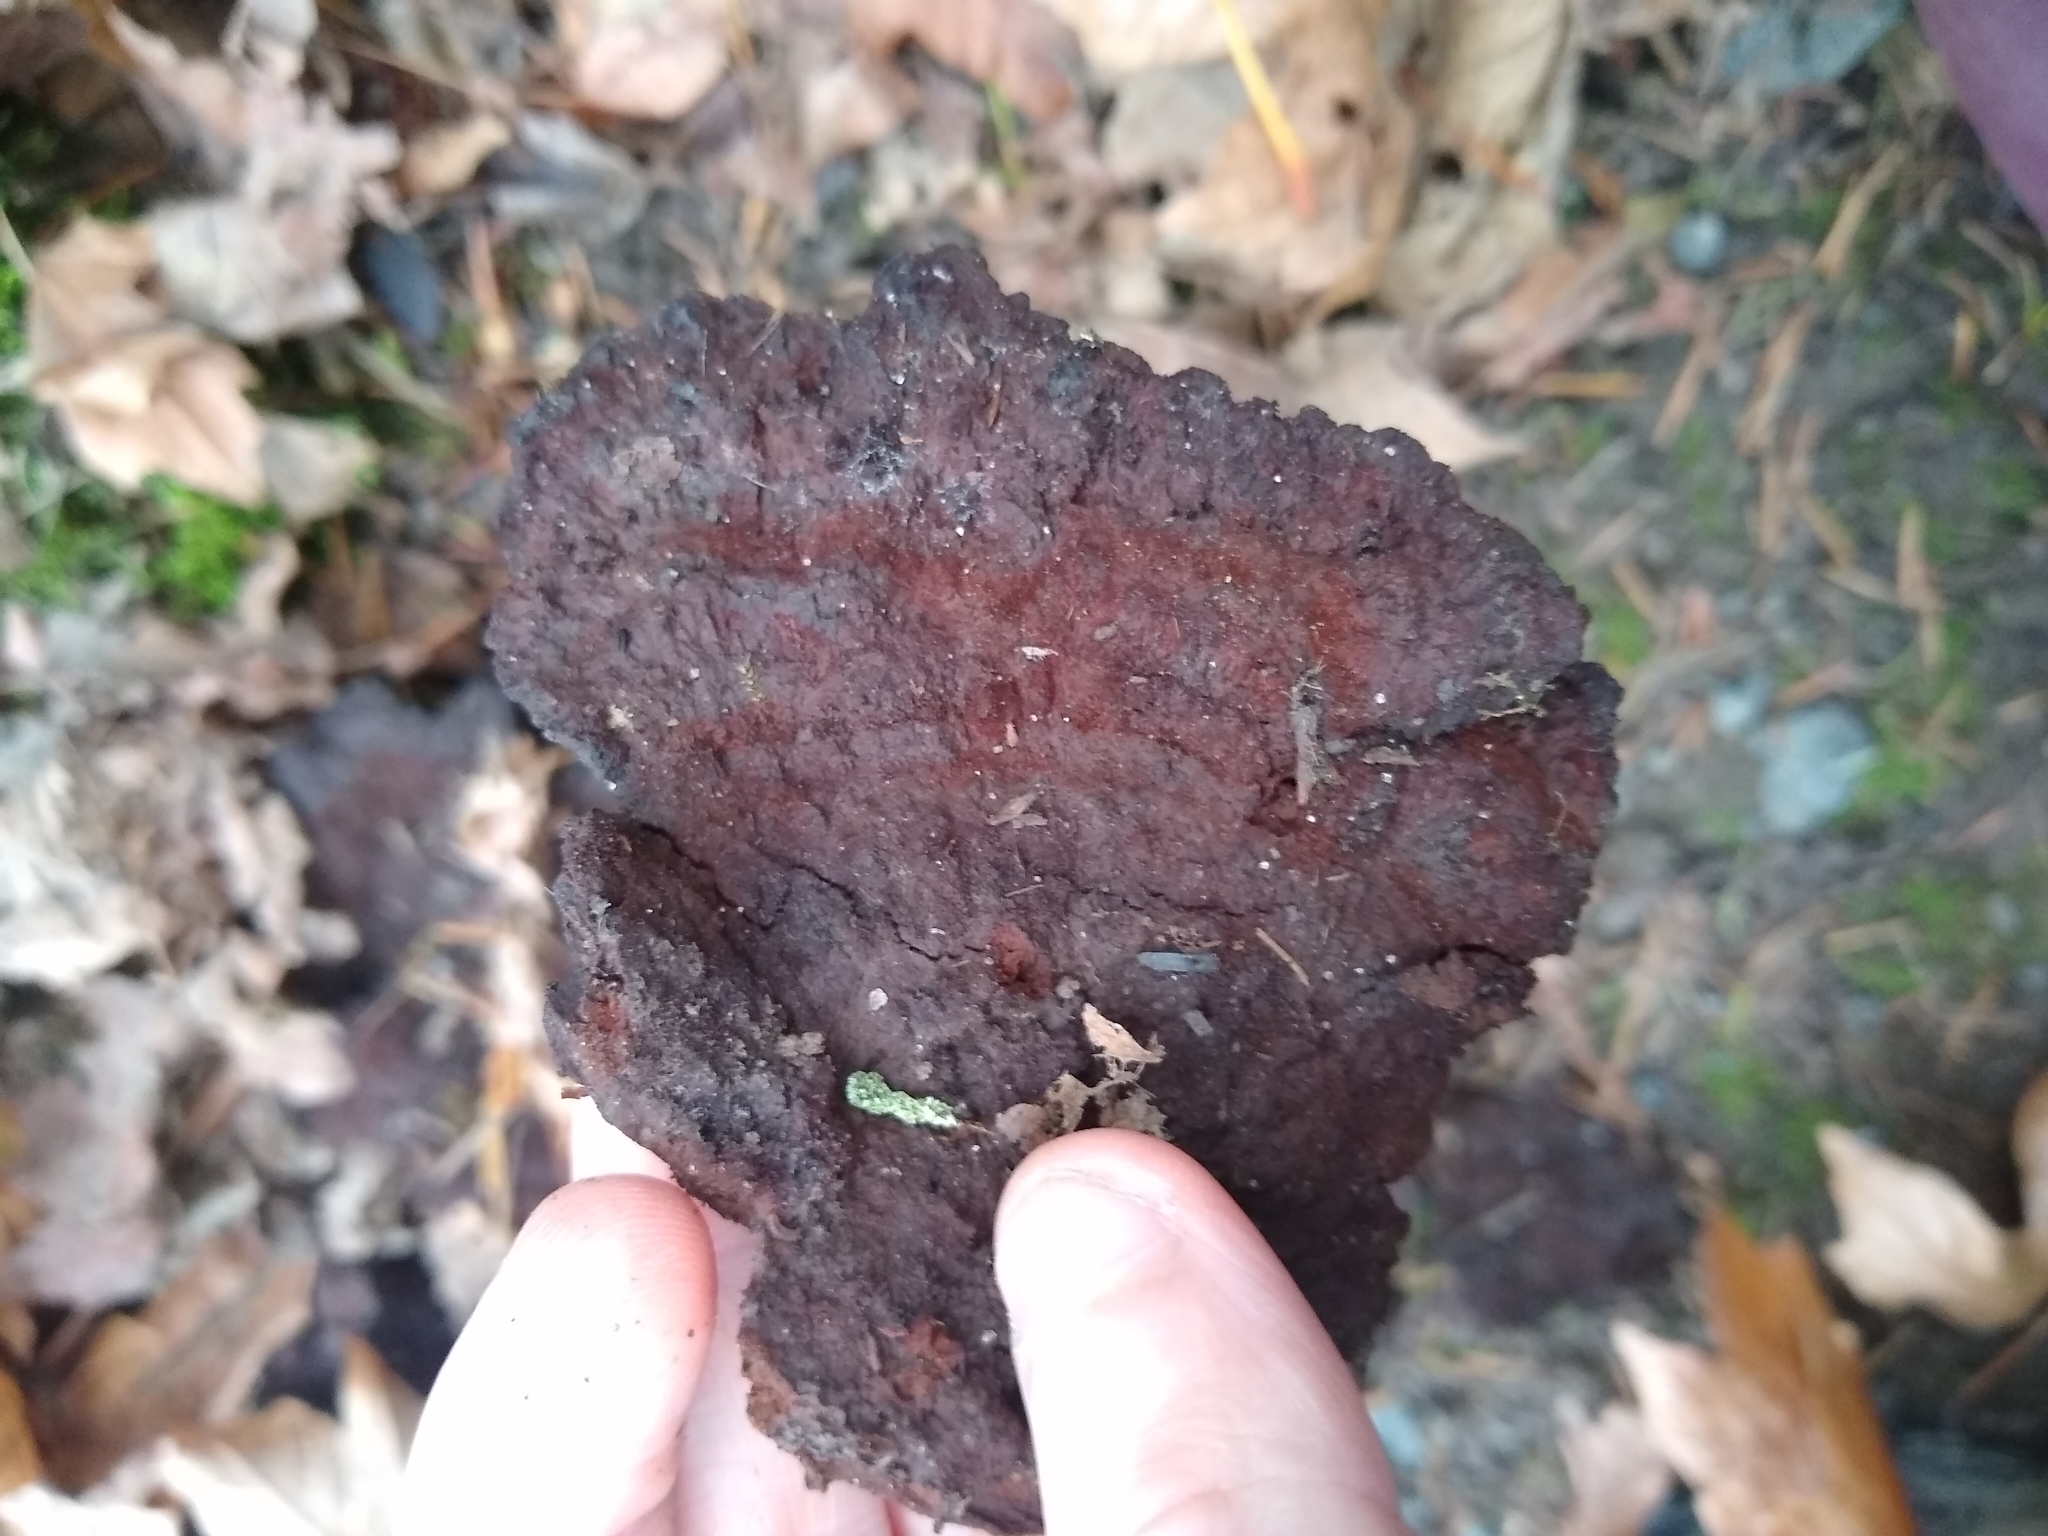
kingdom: Fungi
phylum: Basidiomycota
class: Agaricomycetes
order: Polyporales
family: Laetiporaceae
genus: Phaeolus
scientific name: Phaeolus schweinitzii
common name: Dyer's mazegill
